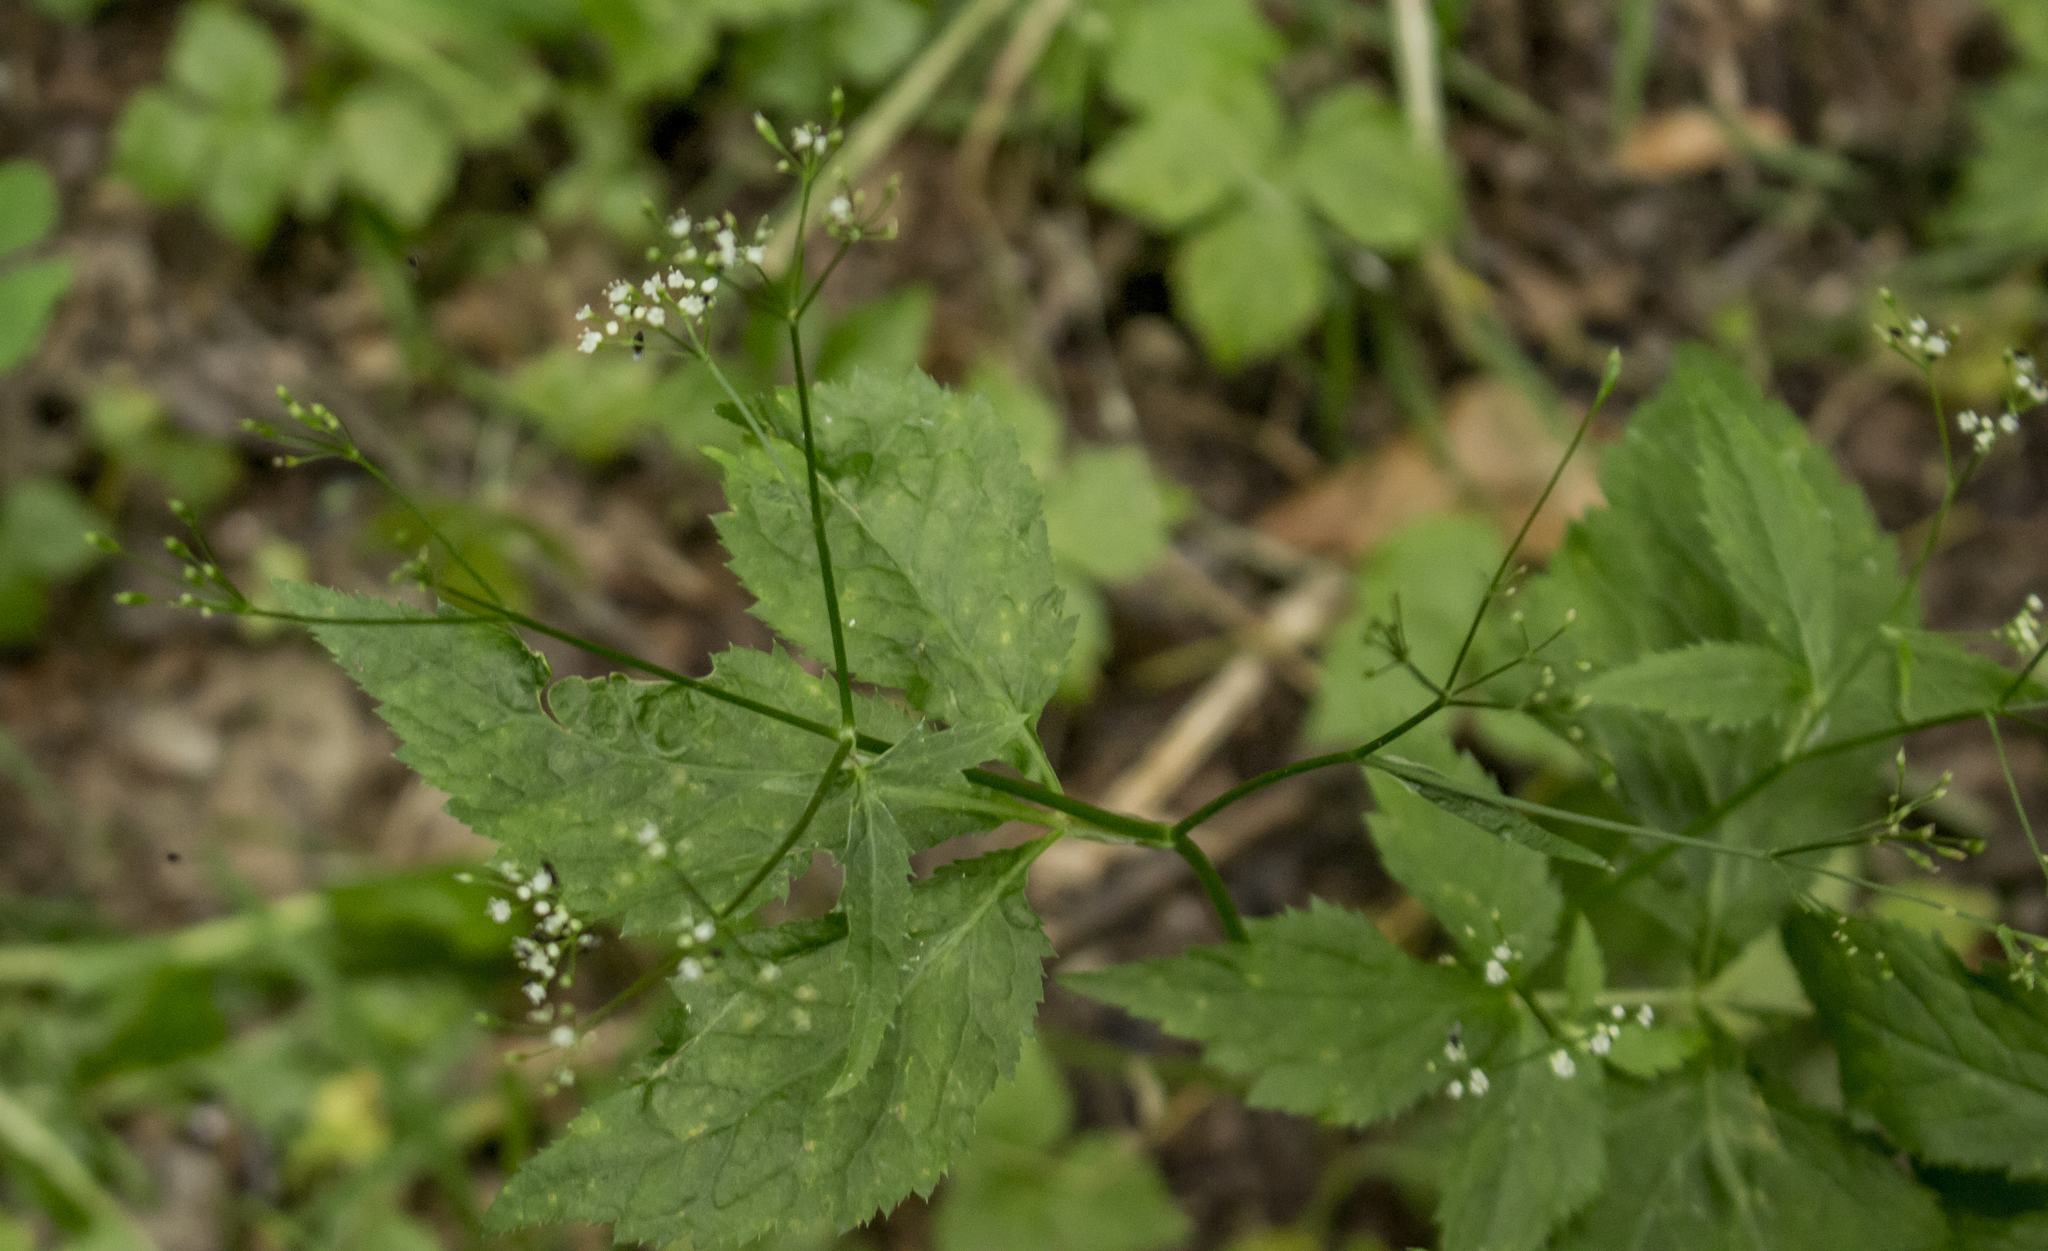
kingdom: Plantae
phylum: Tracheophyta
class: Magnoliopsida
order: Apiales
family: Apiaceae
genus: Cryptotaenia
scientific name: Cryptotaenia canadensis
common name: Honewort
